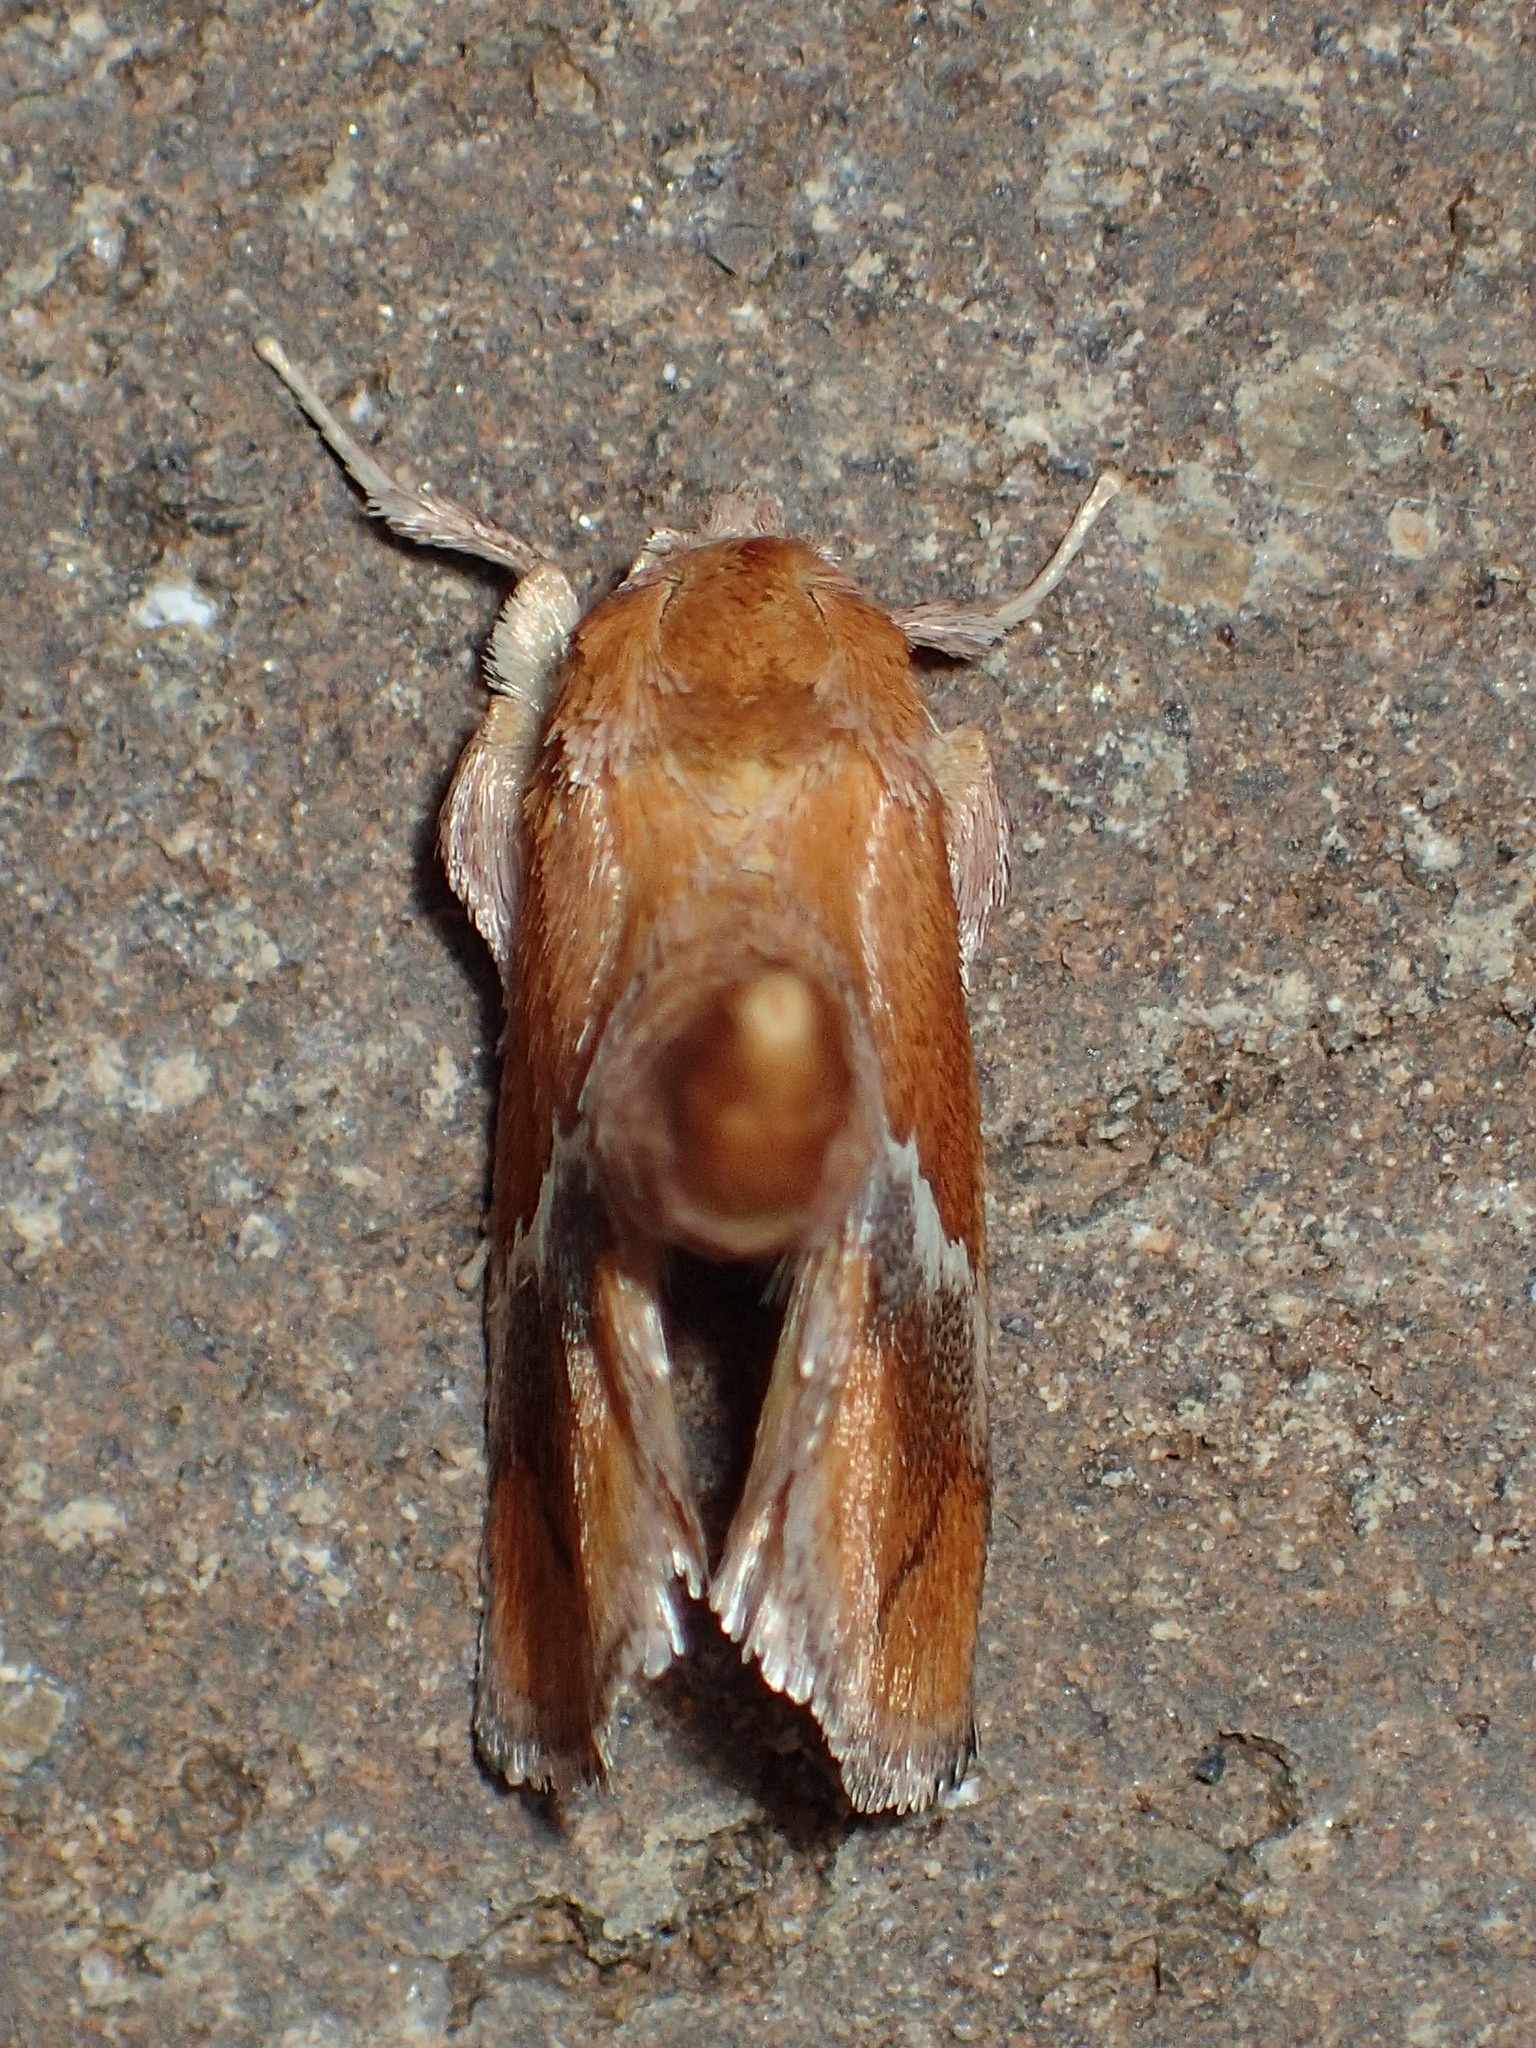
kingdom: Animalia
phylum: Arthropoda
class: Insecta
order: Lepidoptera
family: Limacodidae
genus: Lithacodes
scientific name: Lithacodes fasciola
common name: Yellow-shouldered slug moth
